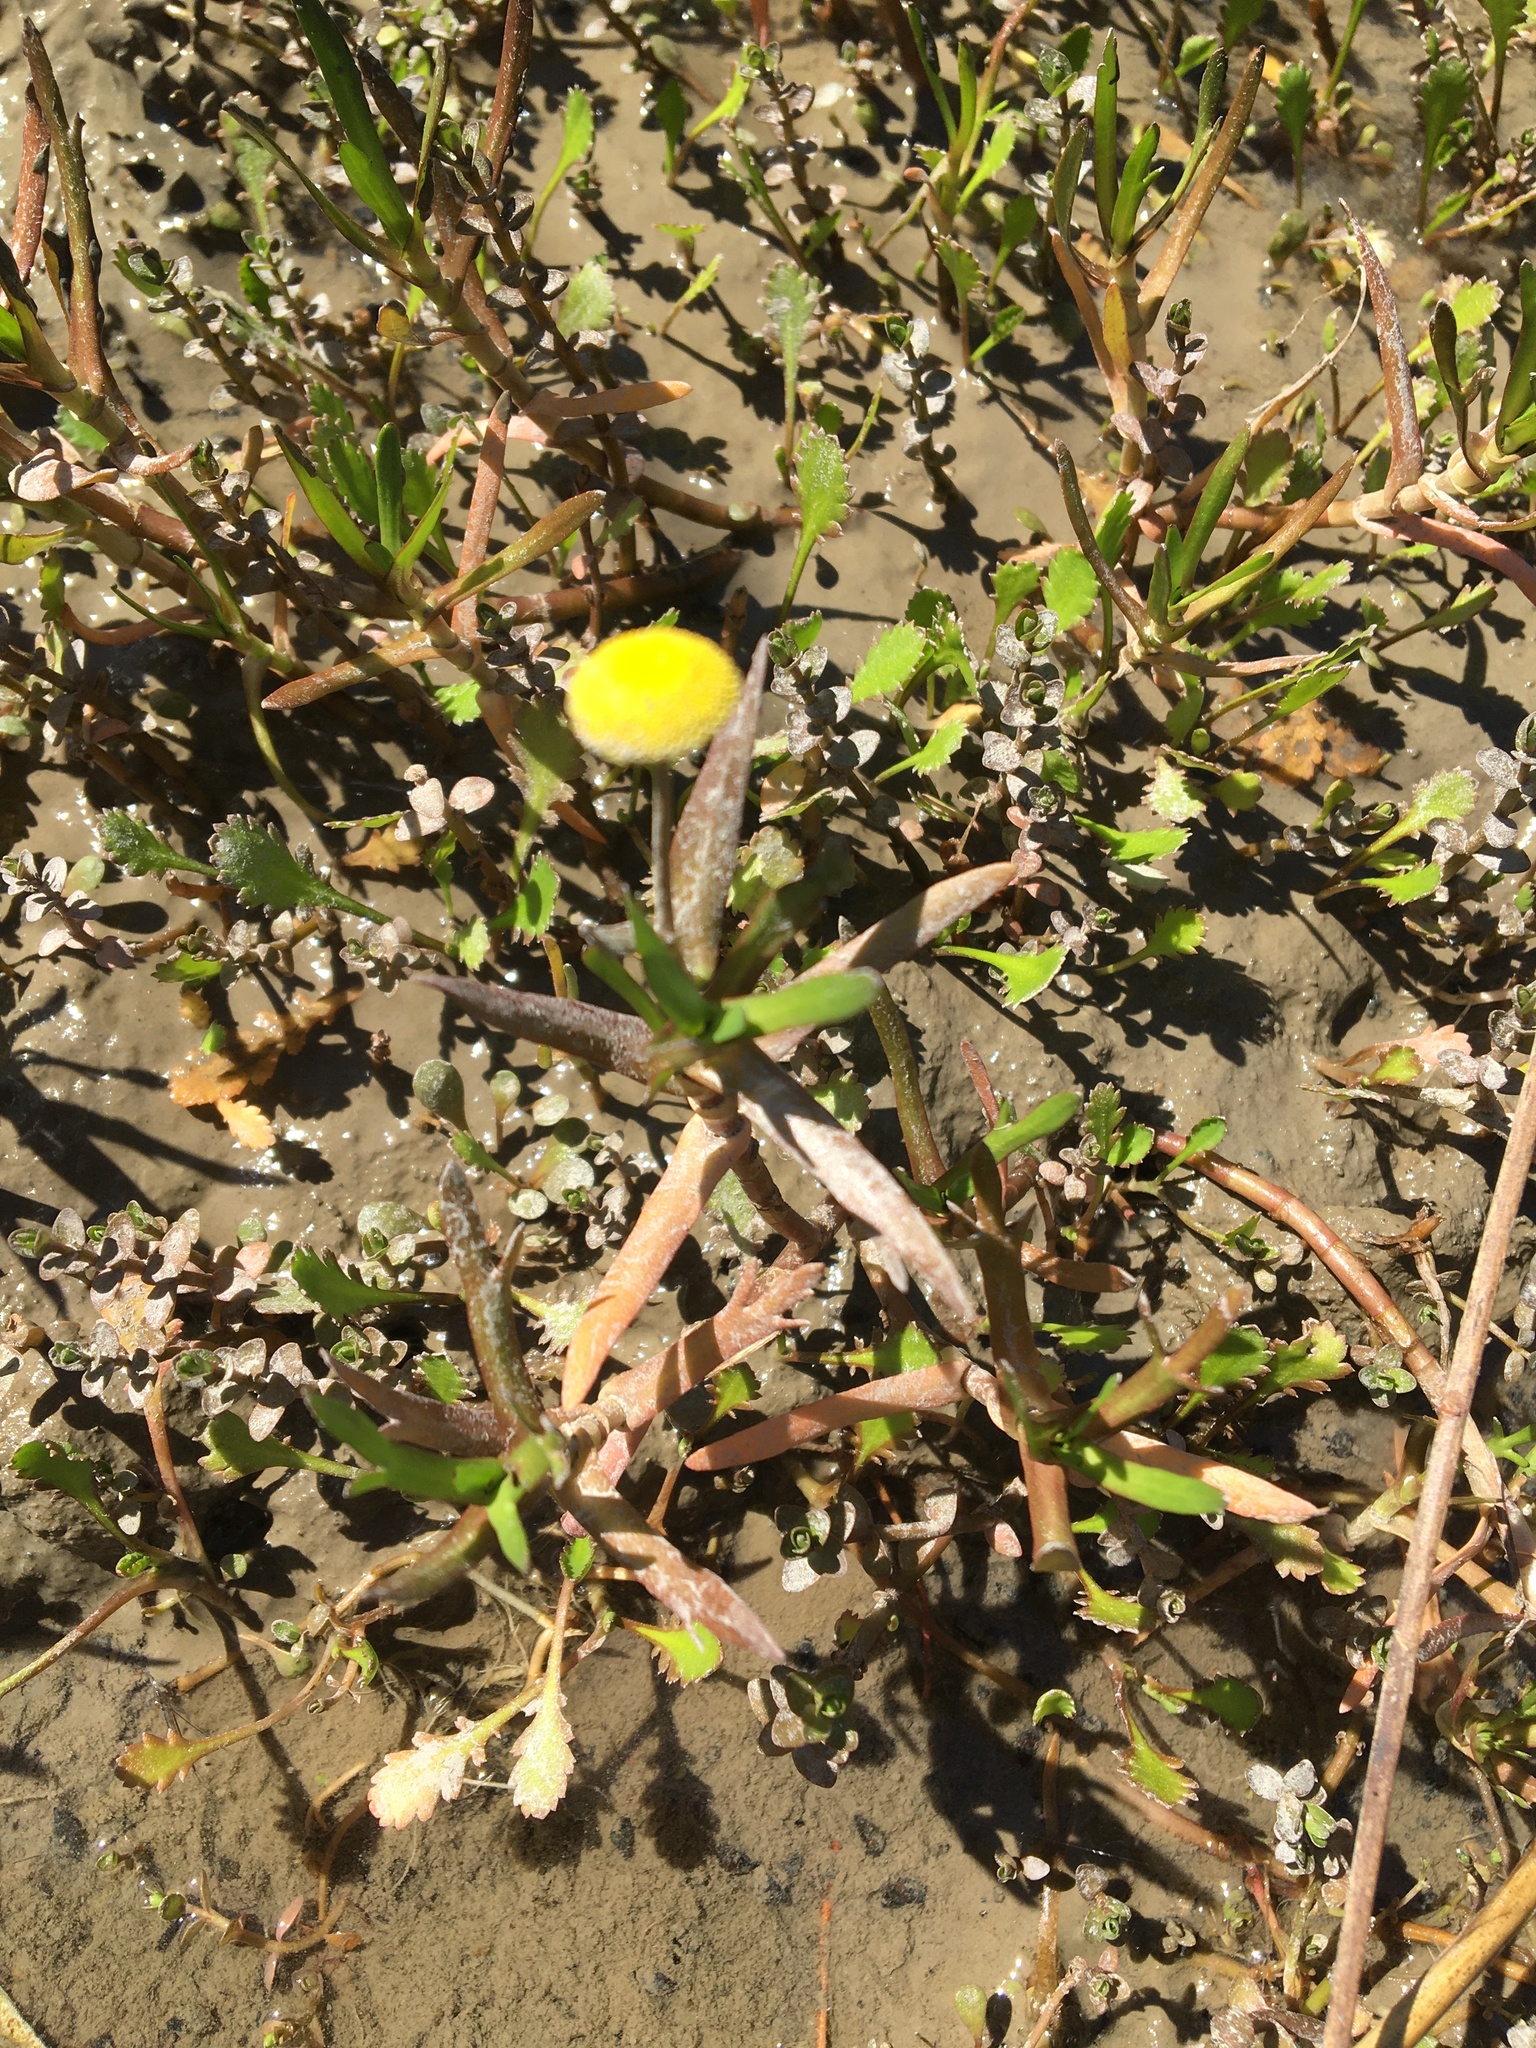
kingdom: Plantae
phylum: Tracheophyta
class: Magnoliopsida
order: Asterales
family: Asteraceae
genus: Cotula
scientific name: Cotula coronopifolia
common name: Buttonweed
